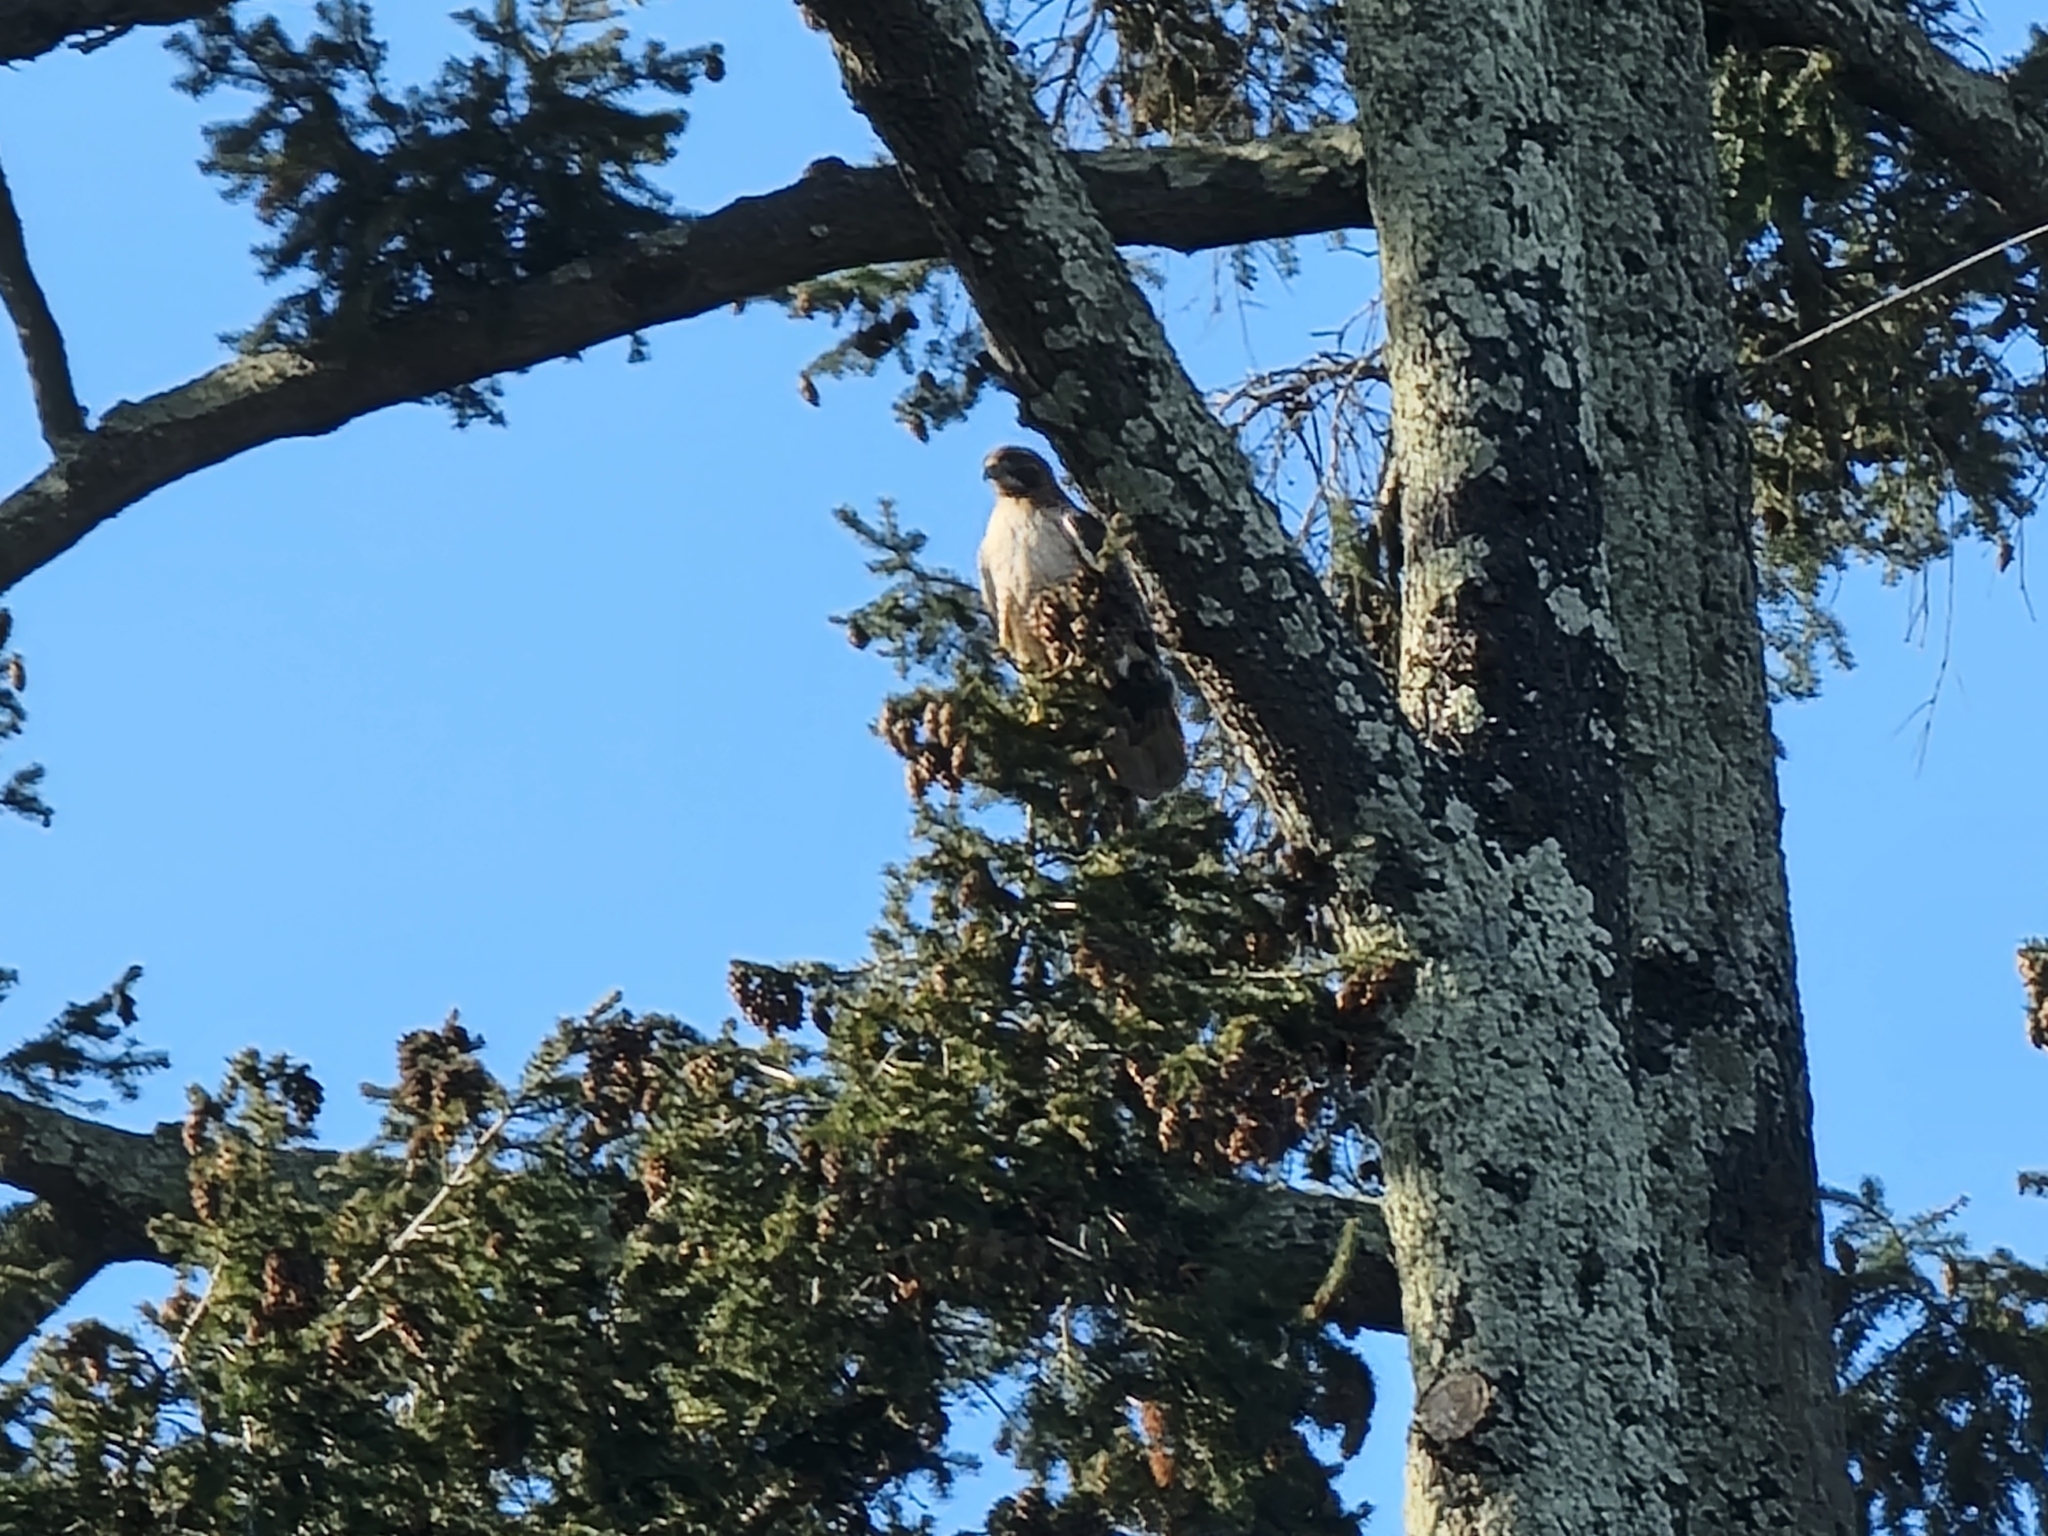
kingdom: Animalia
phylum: Chordata
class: Aves
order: Accipitriformes
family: Accipitridae
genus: Buteo
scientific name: Buteo jamaicensis
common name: Red-tailed hawk
